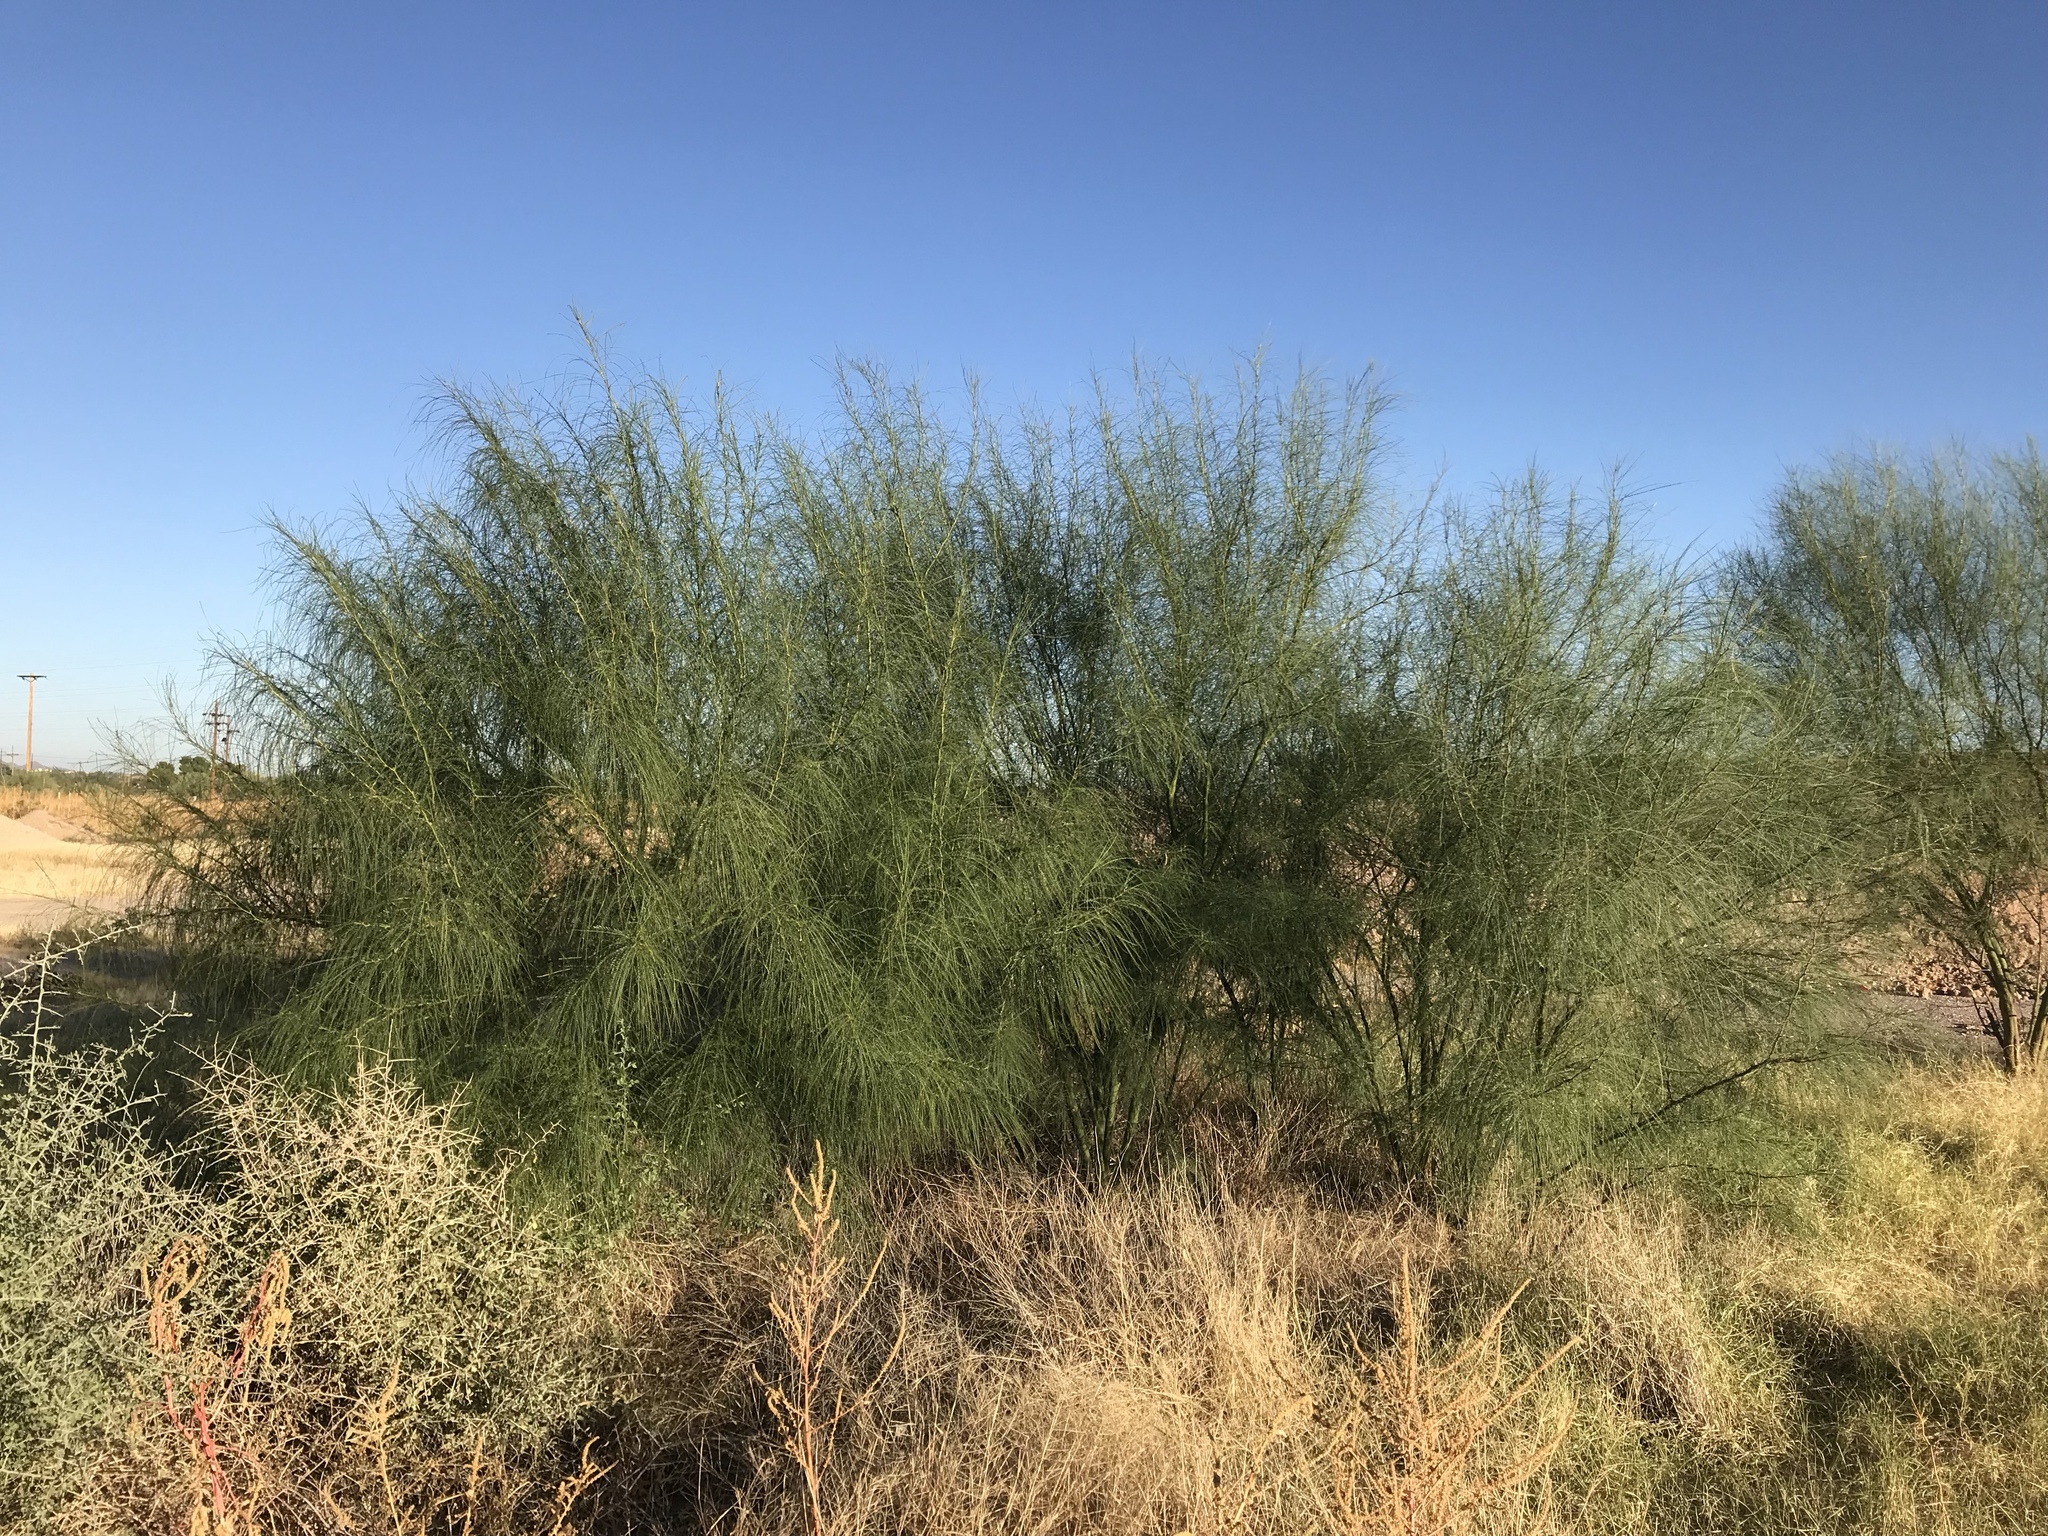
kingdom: Plantae
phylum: Tracheophyta
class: Magnoliopsida
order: Fabales
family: Fabaceae
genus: Parkinsonia
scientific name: Parkinsonia aculeata
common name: Jerusalem thorn
